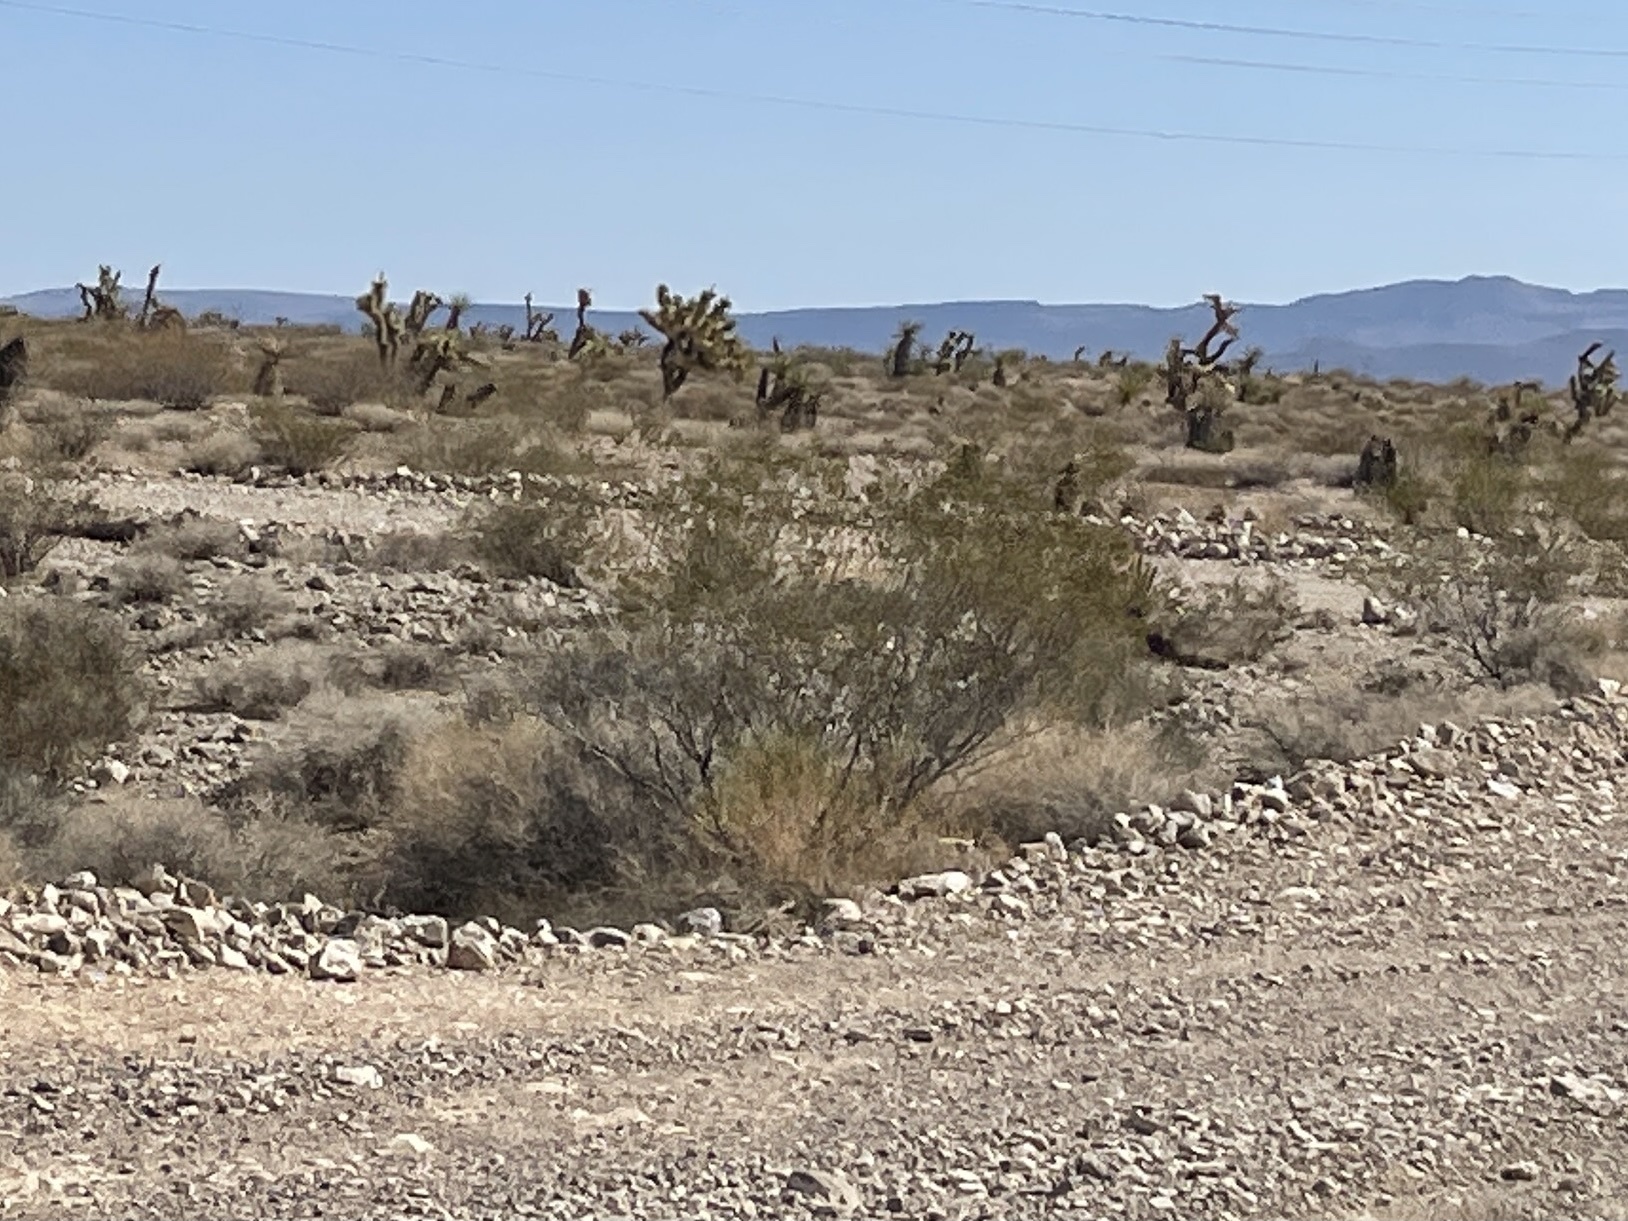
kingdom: Plantae
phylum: Tracheophyta
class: Magnoliopsida
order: Zygophyllales
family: Zygophyllaceae
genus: Larrea
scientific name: Larrea tridentata
